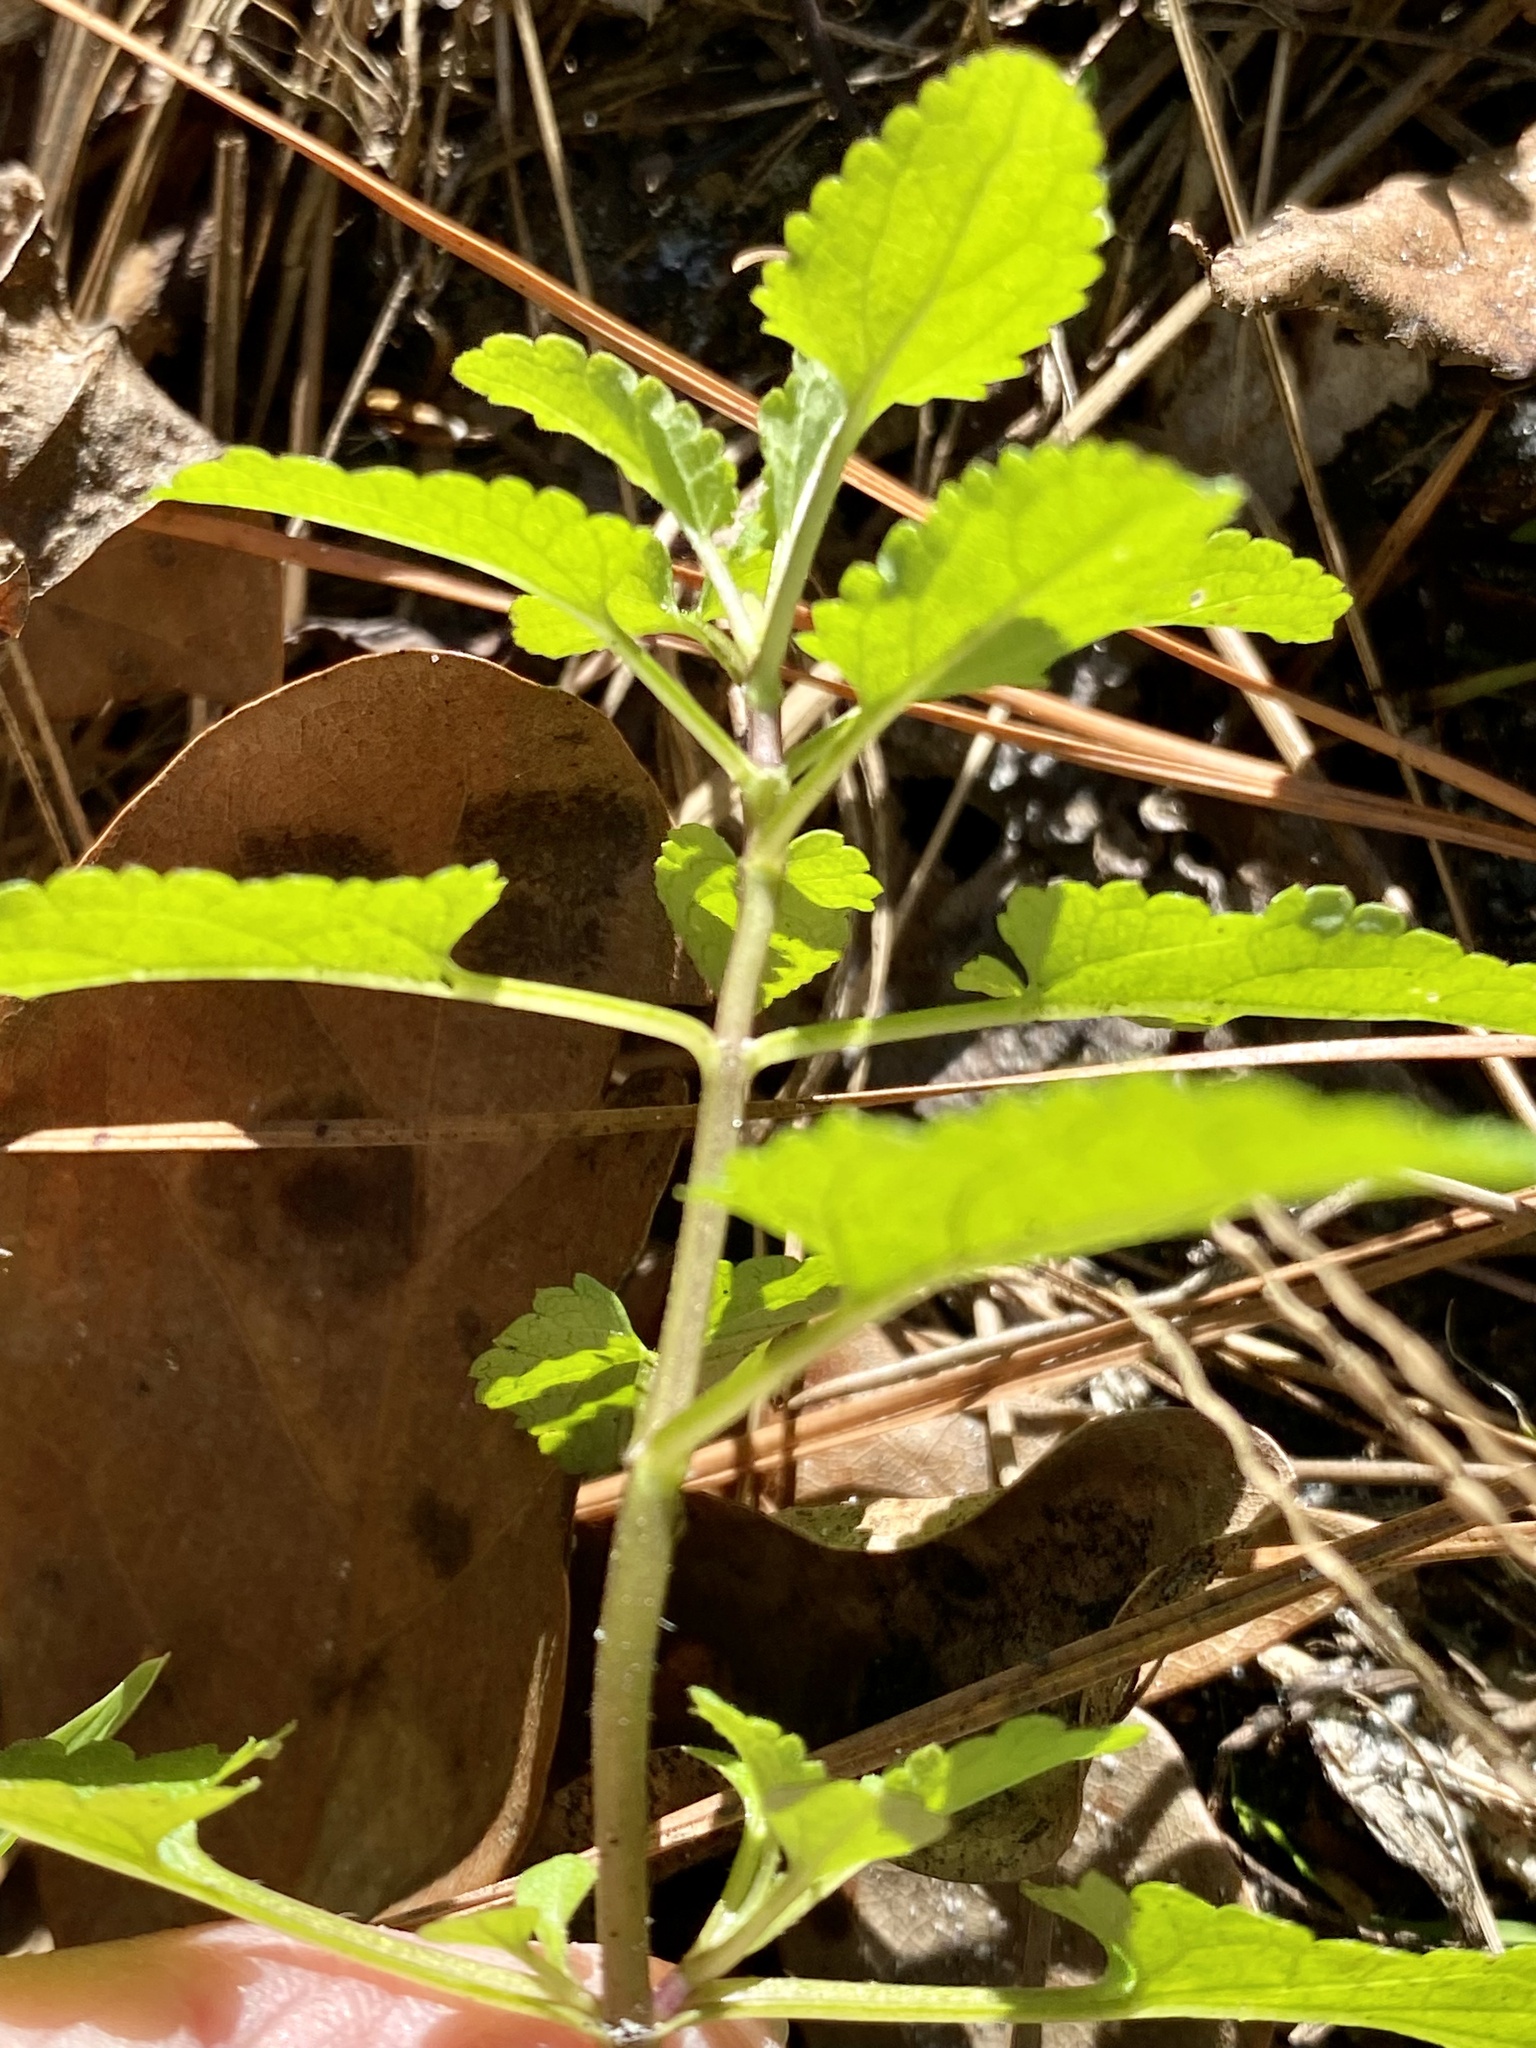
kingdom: Plantae
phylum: Tracheophyta
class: Magnoliopsida
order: Lamiales
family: Lamiaceae
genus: Stachys
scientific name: Stachys floridana
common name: Florida betony
